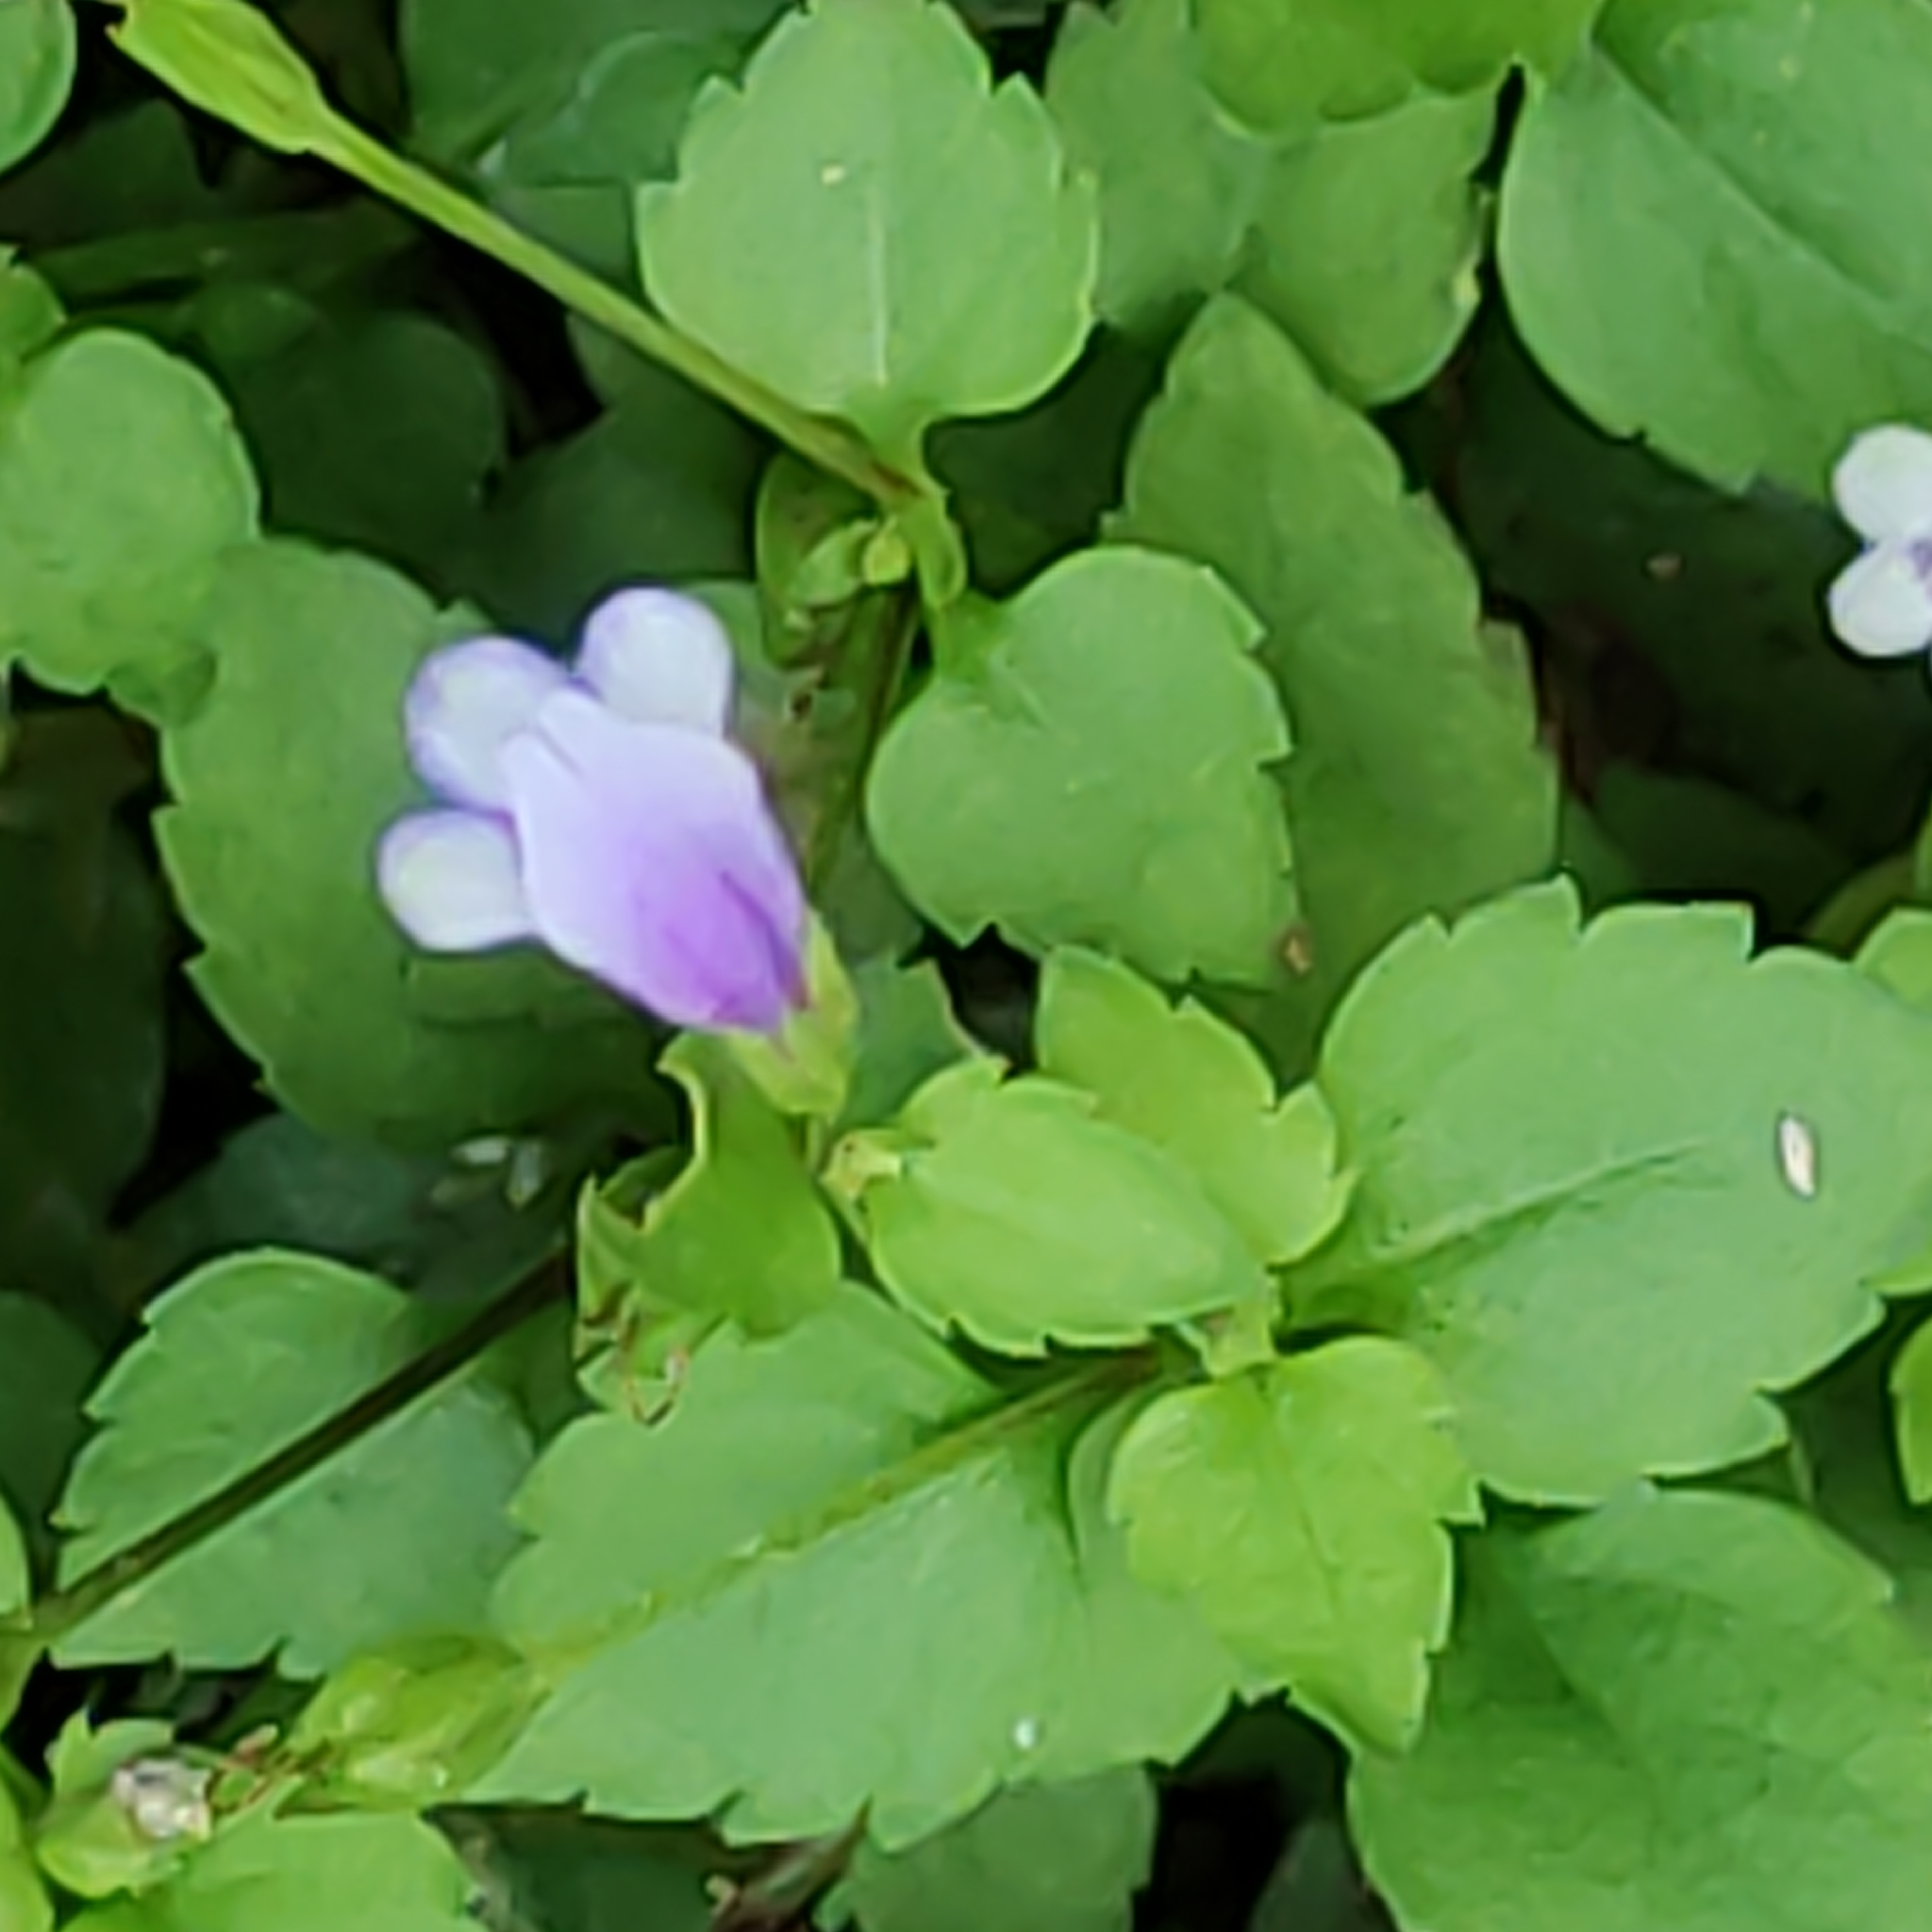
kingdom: Plantae
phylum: Tracheophyta
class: Magnoliopsida
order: Lamiales
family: Linderniaceae
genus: Torenia
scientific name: Torenia crustacea
